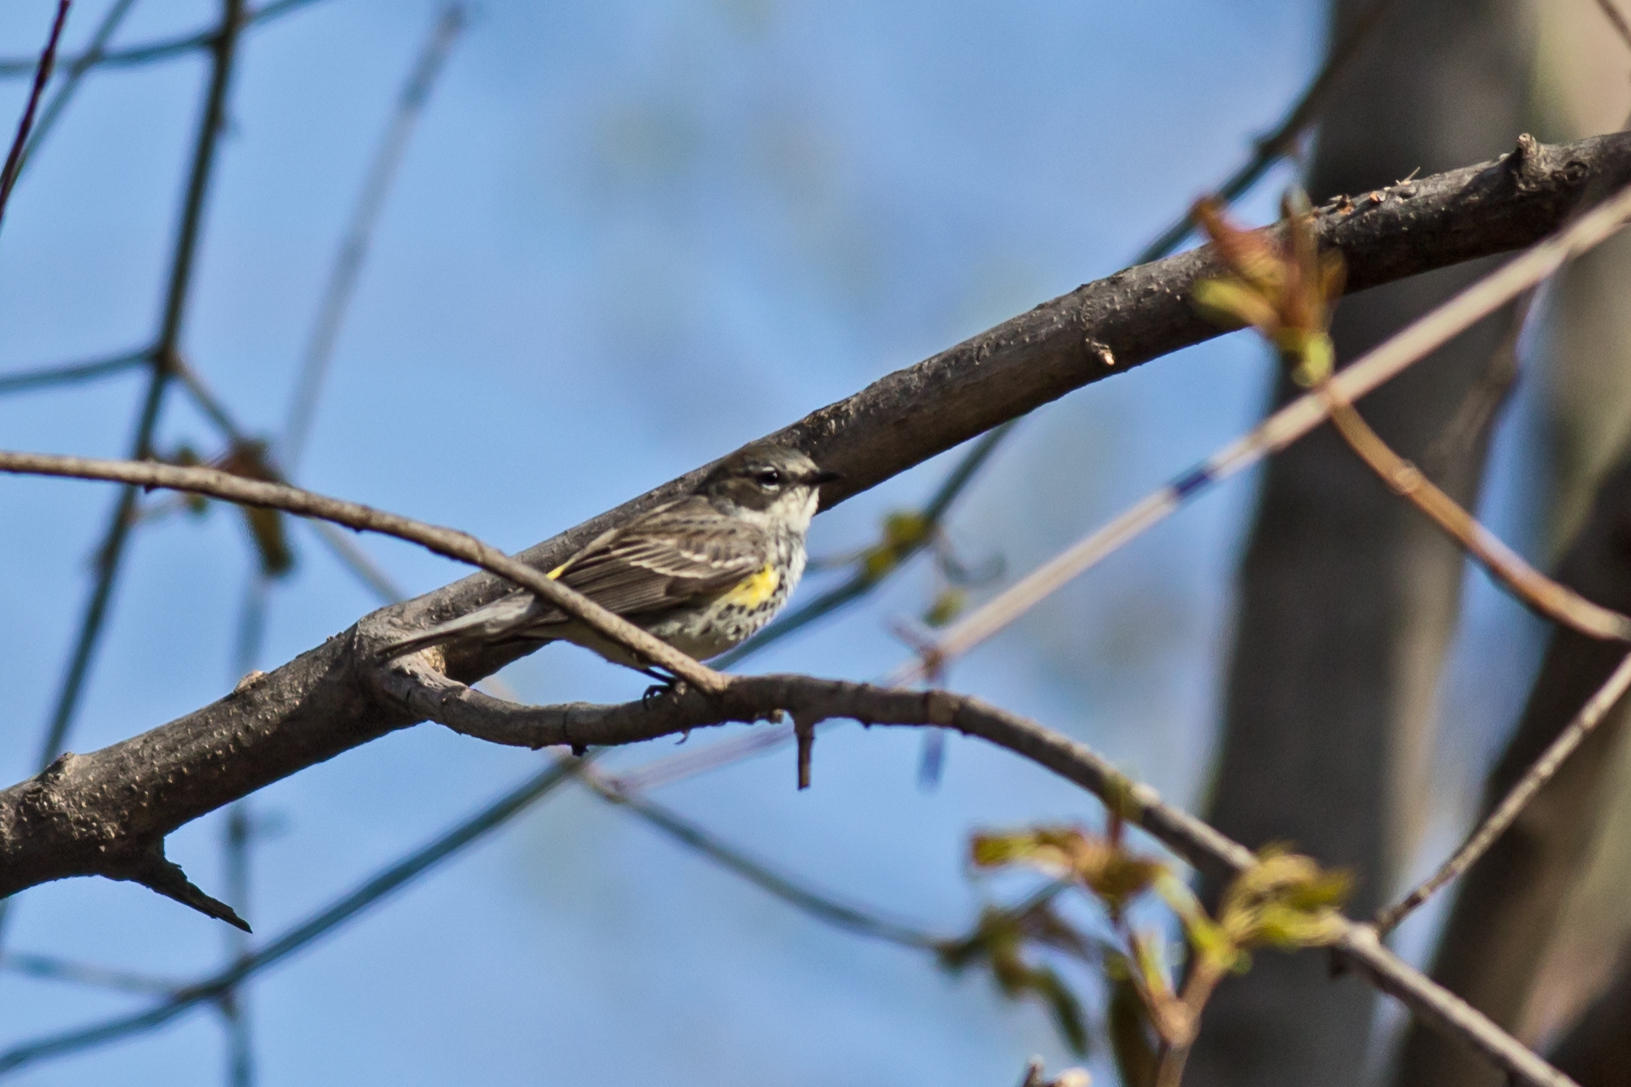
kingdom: Animalia
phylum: Chordata
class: Aves
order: Passeriformes
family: Parulidae
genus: Setophaga
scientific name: Setophaga coronata
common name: Myrtle warbler
